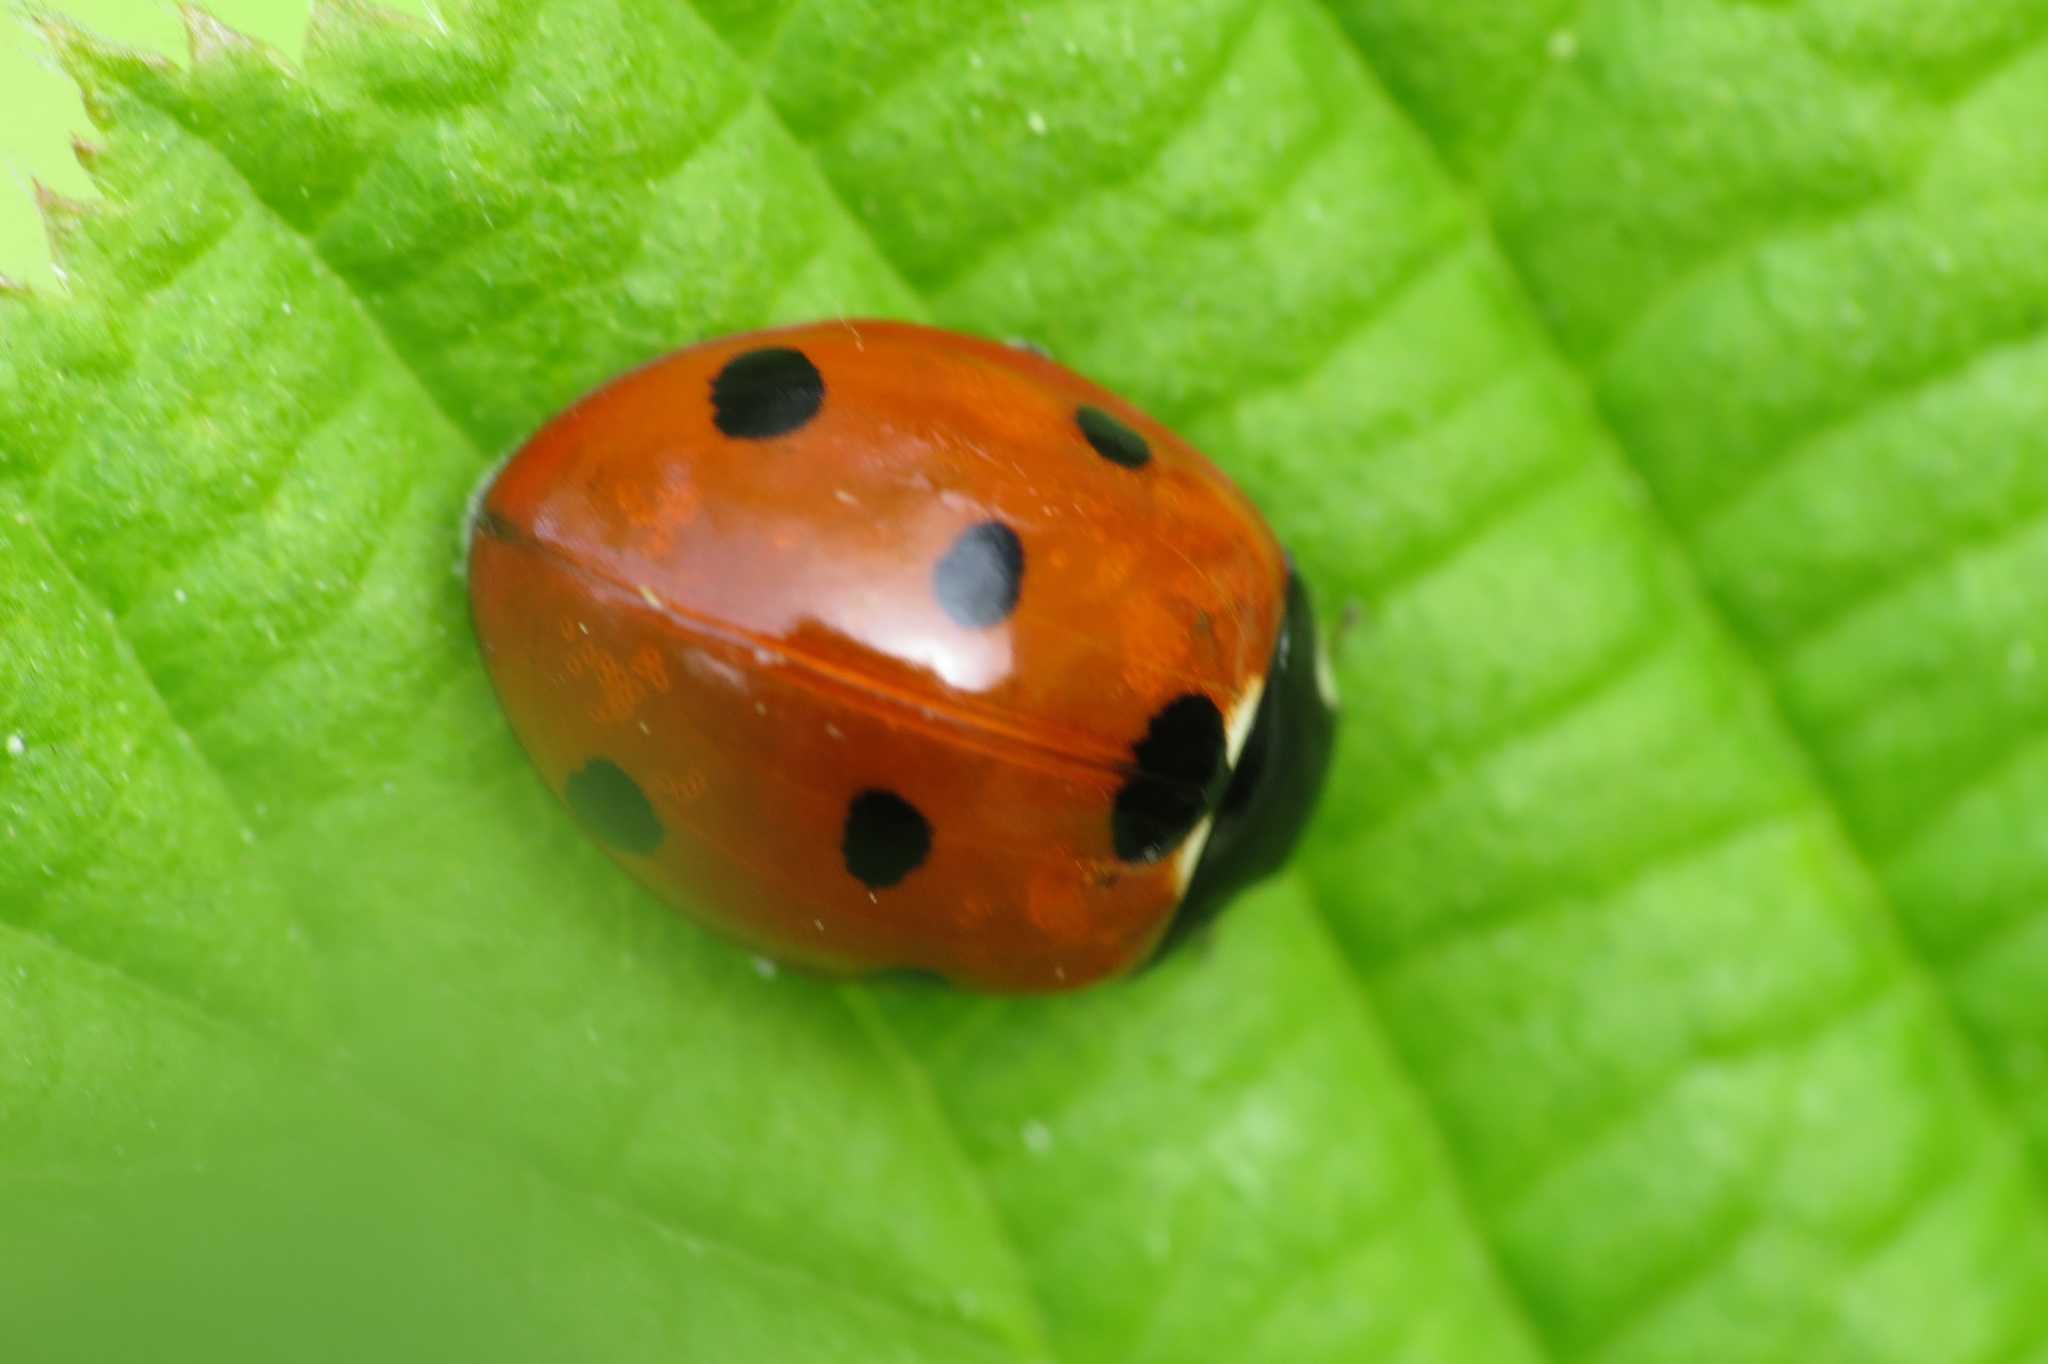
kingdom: Animalia
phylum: Arthropoda
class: Insecta
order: Coleoptera
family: Coccinellidae
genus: Coccinella
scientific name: Coccinella septempunctata
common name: Sevenspotted lady beetle
